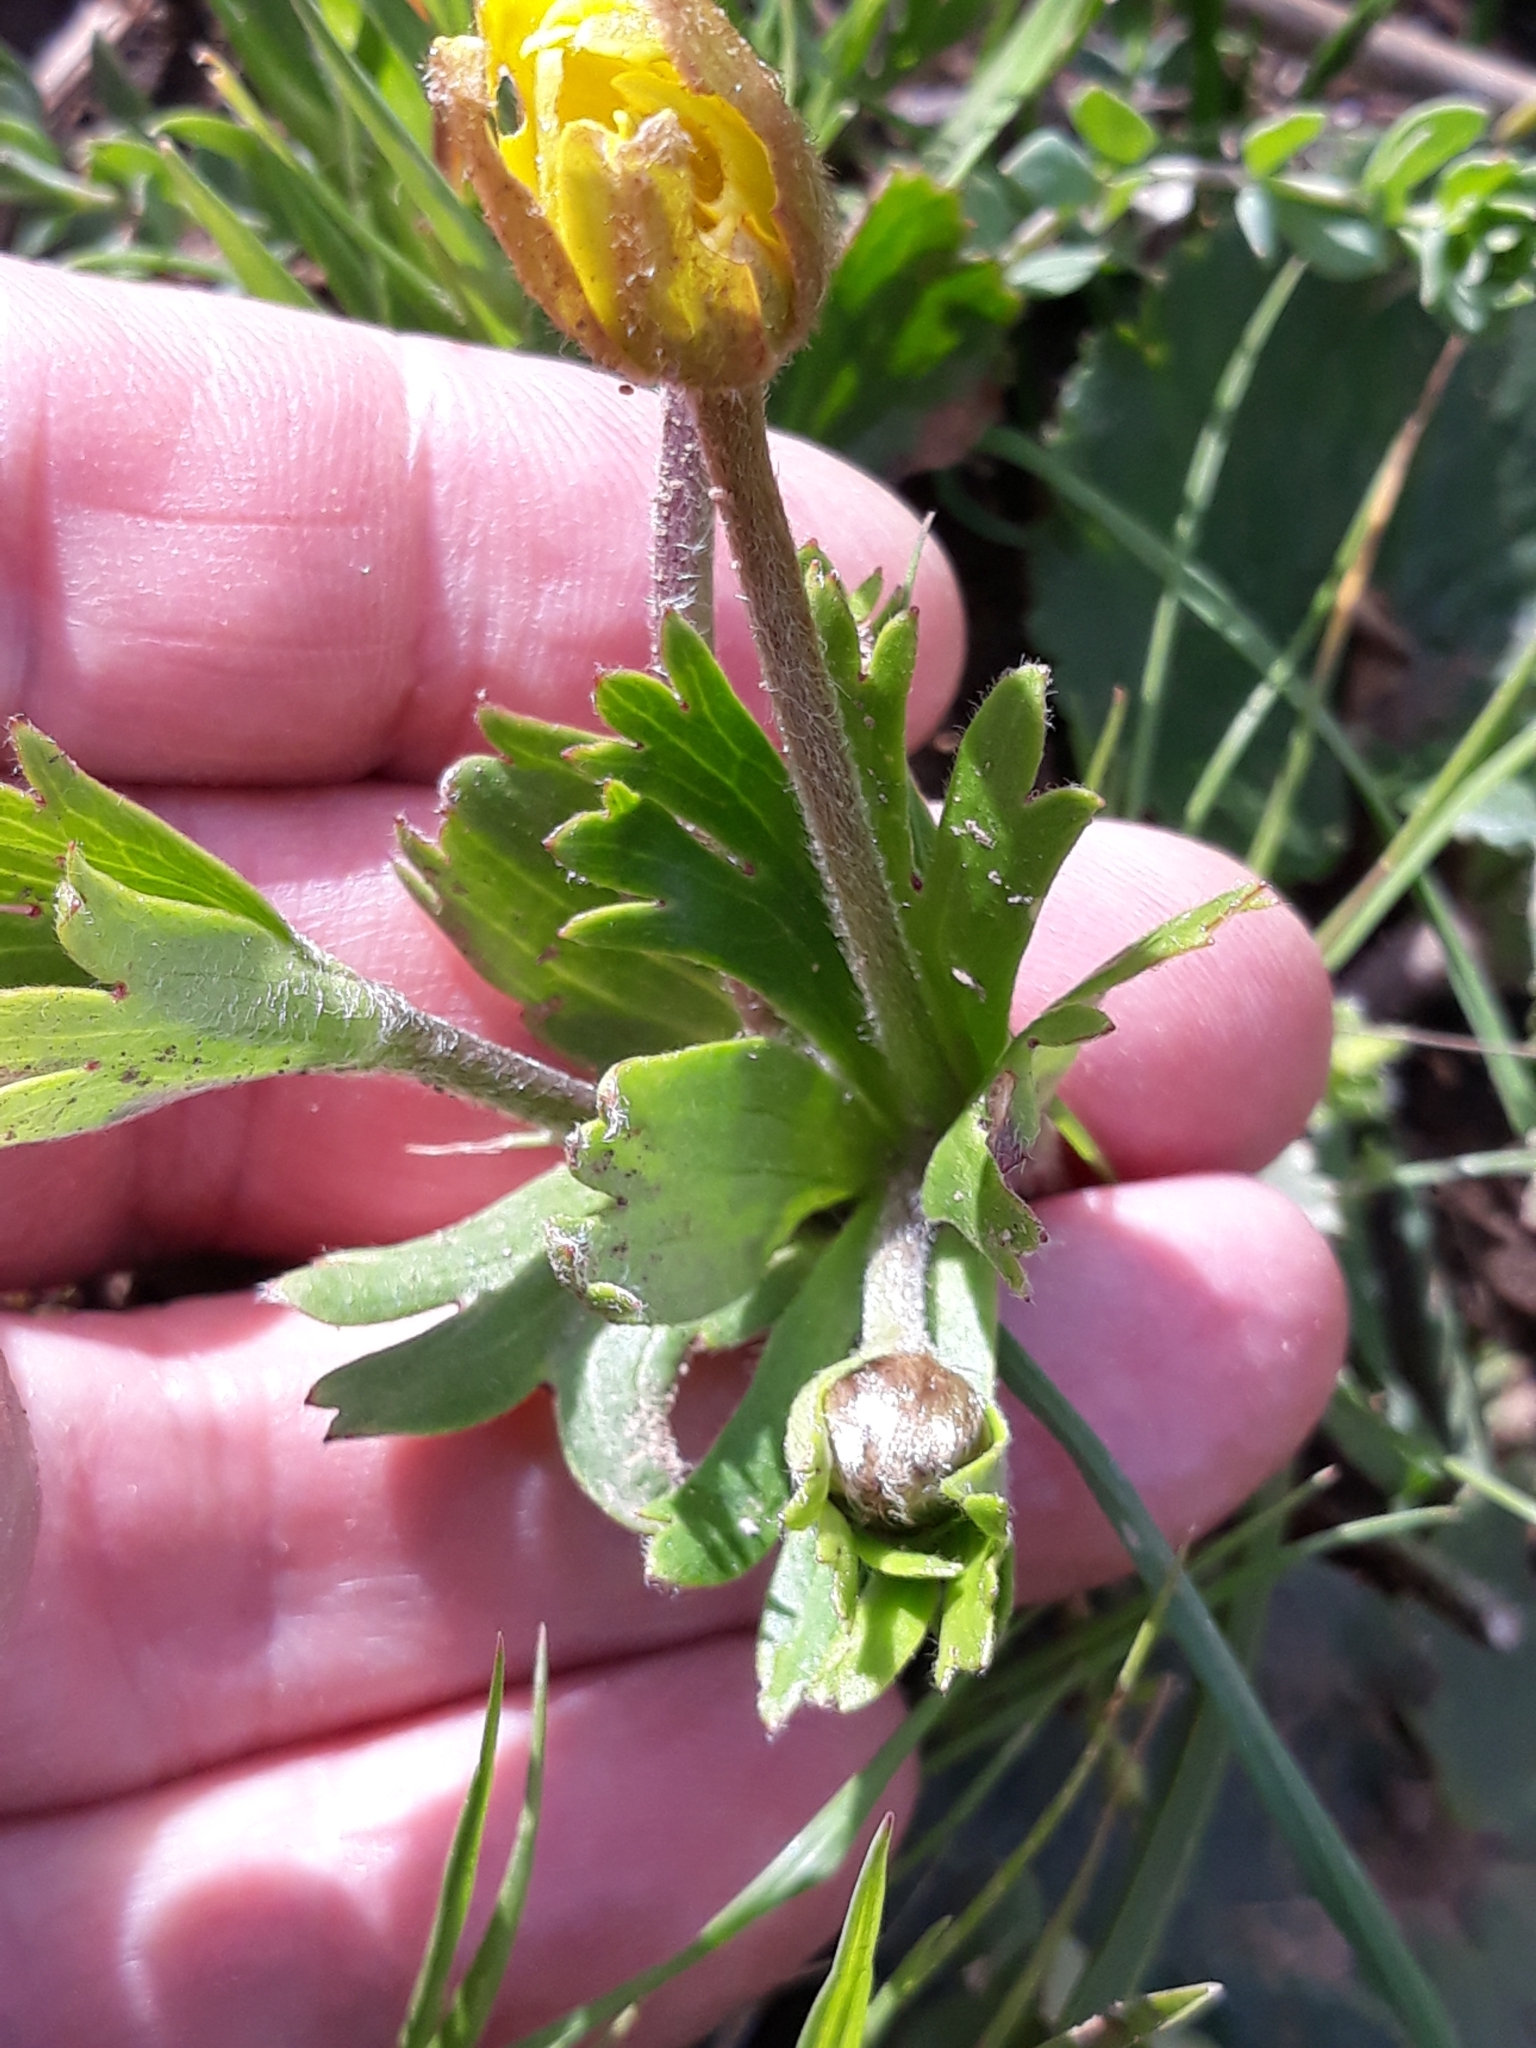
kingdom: Plantae
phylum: Tracheophyta
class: Magnoliopsida
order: Ranunculales
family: Ranunculaceae
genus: Anemone
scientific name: Anemone palmata
